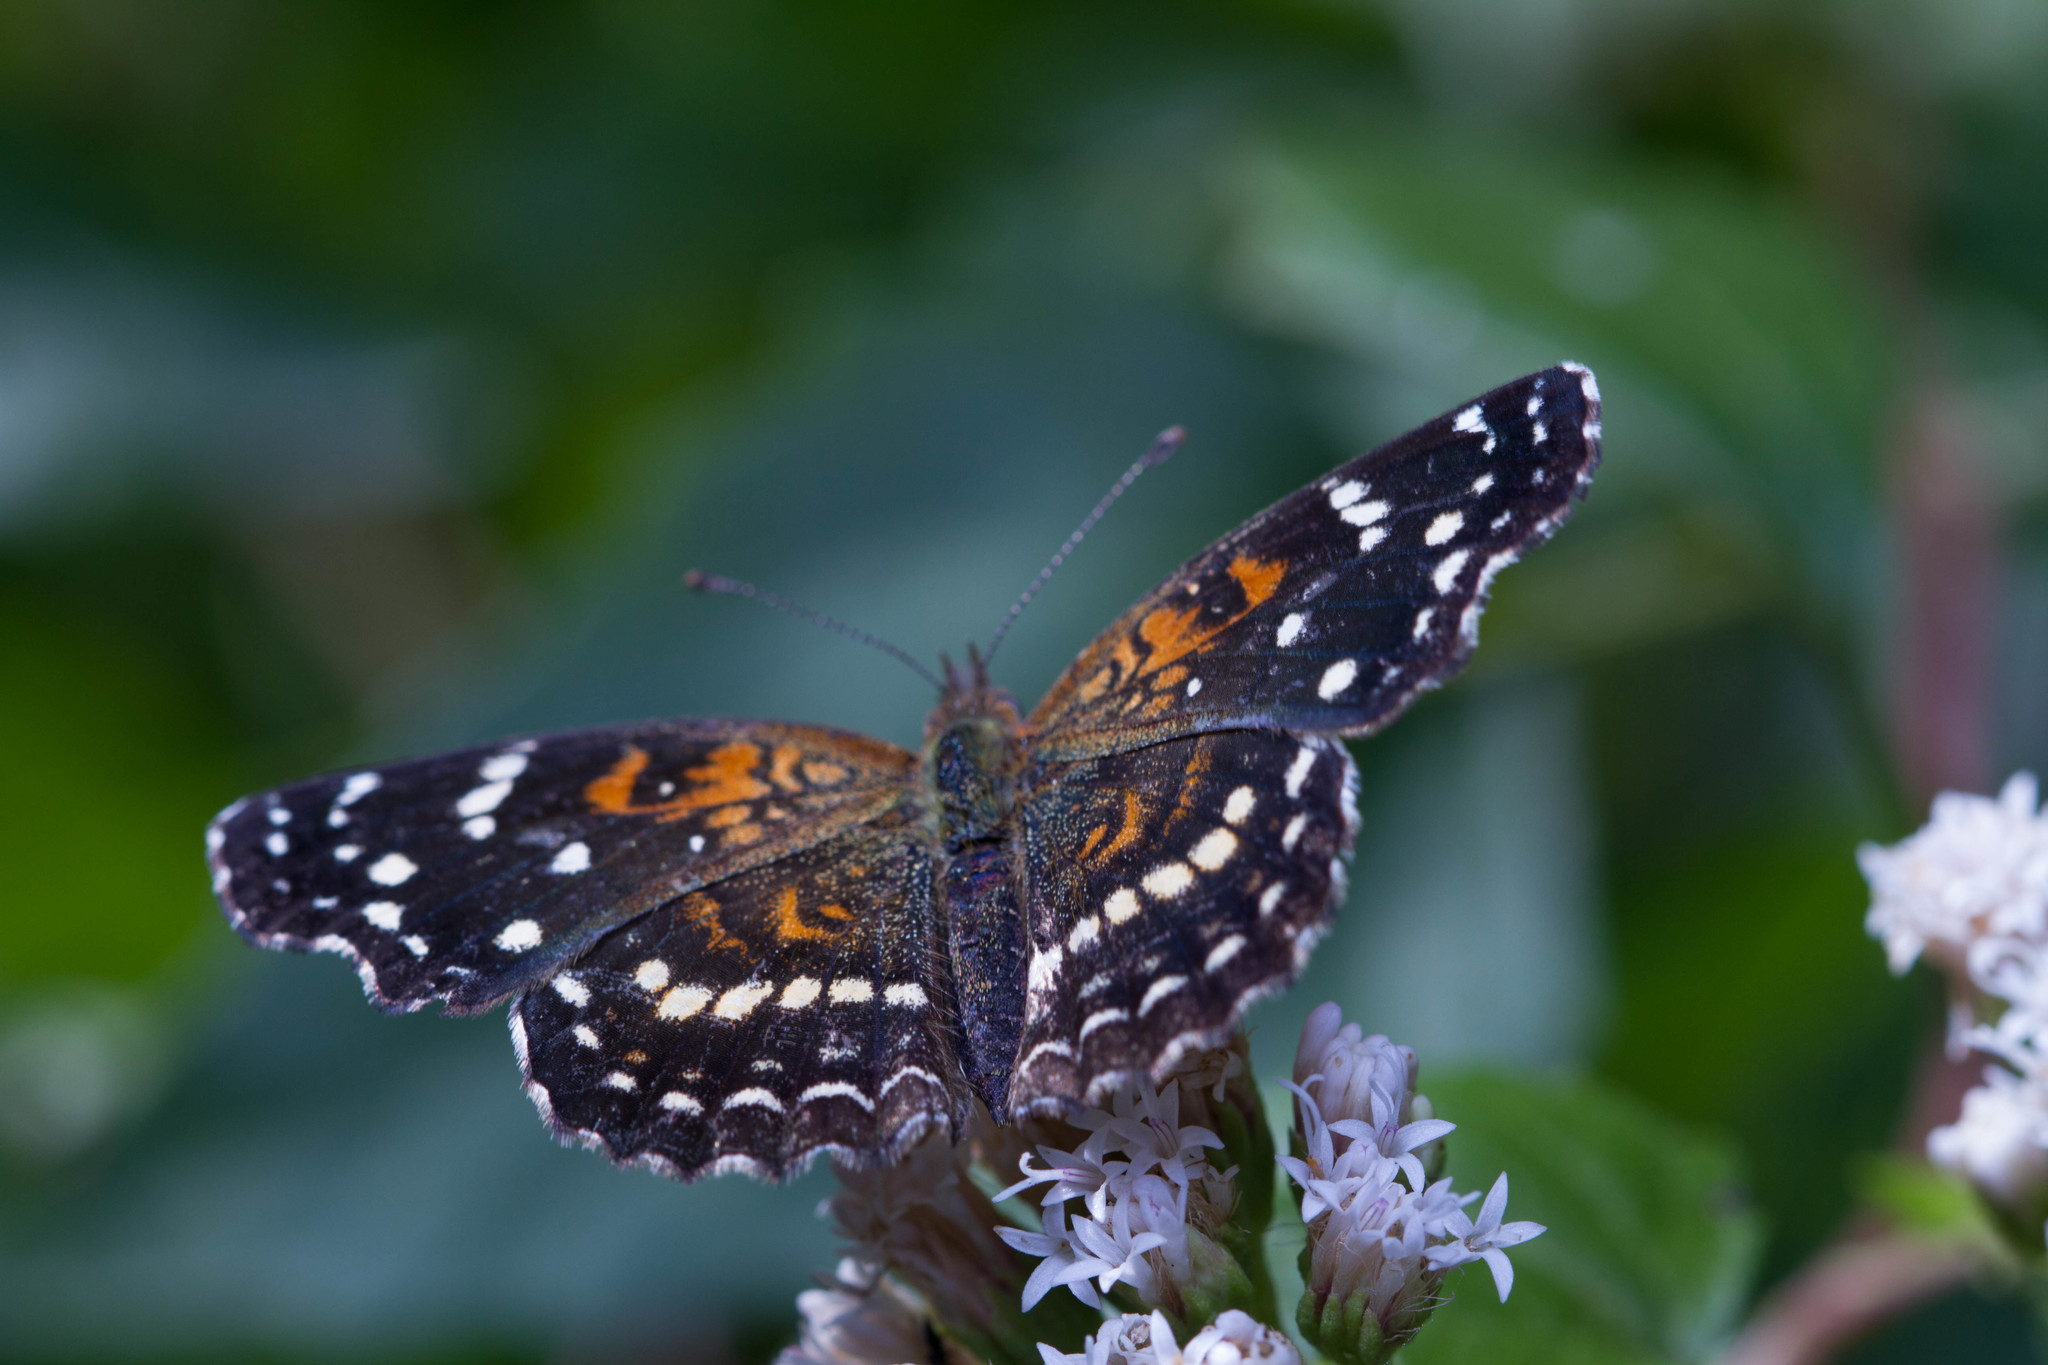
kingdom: Animalia
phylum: Arthropoda
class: Insecta
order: Lepidoptera
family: Nymphalidae
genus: Anthanassa
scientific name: Anthanassa texana
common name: Texan crescent
